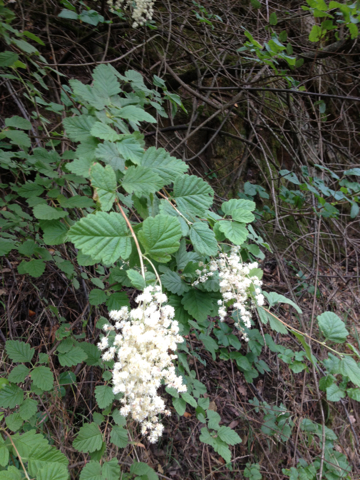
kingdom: Plantae
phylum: Tracheophyta
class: Magnoliopsida
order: Rosales
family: Rosaceae
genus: Holodiscus
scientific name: Holodiscus discolor
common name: Oceanspray
